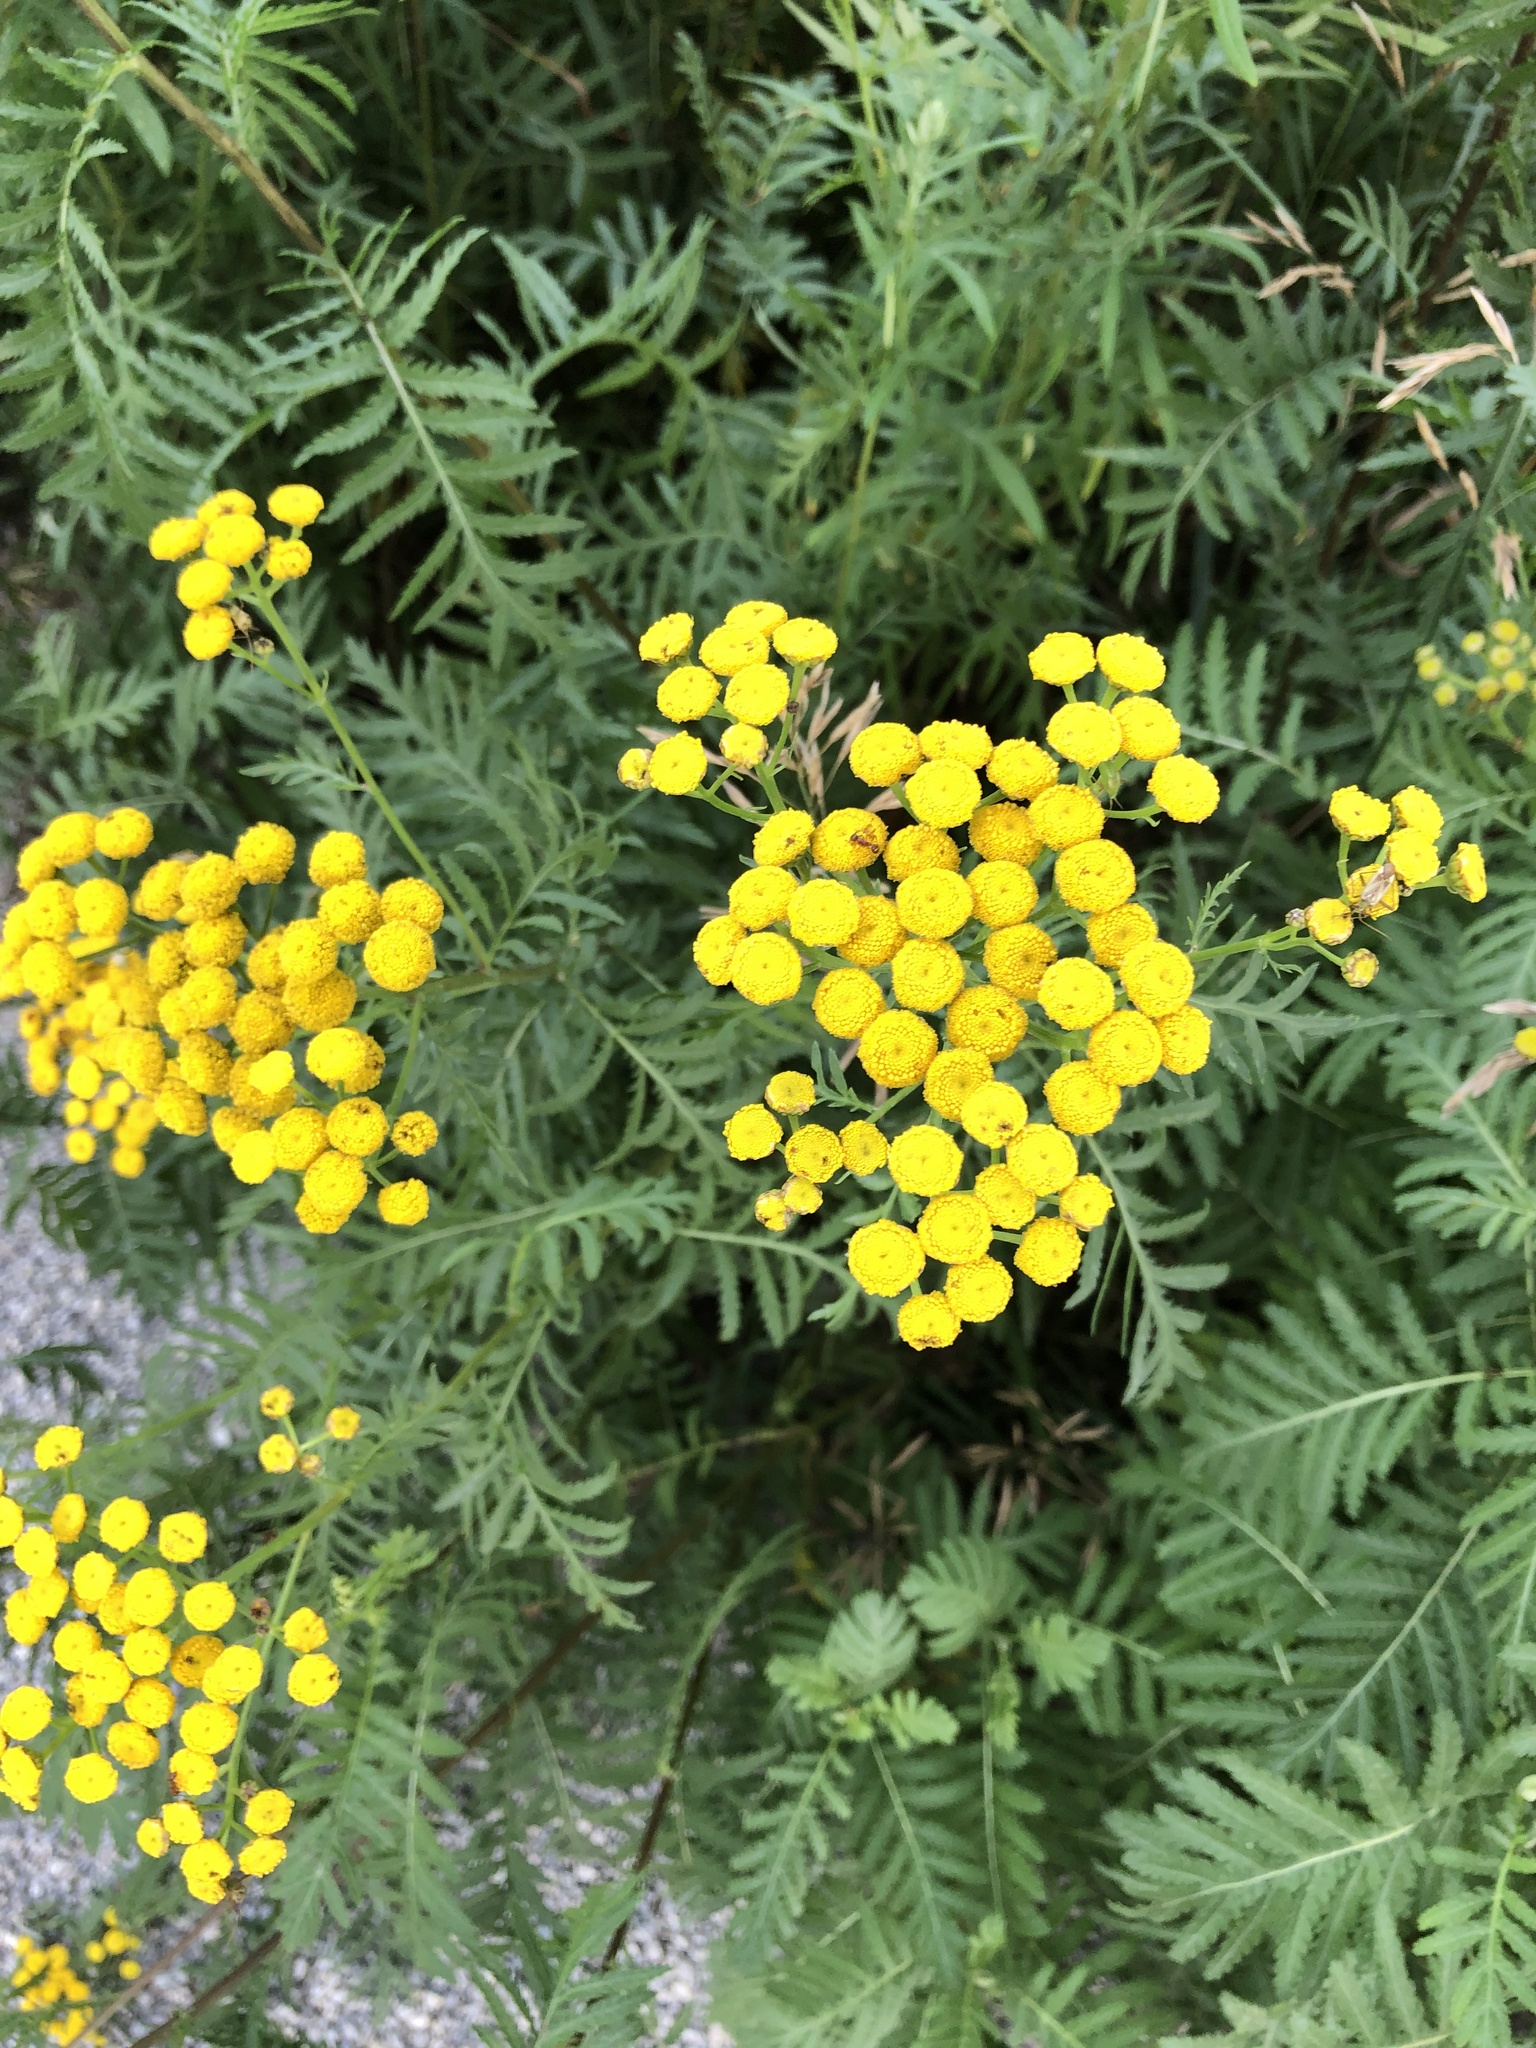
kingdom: Plantae
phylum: Tracheophyta
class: Magnoliopsida
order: Asterales
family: Asteraceae
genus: Tanacetum
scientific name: Tanacetum vulgare
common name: Common tansy
